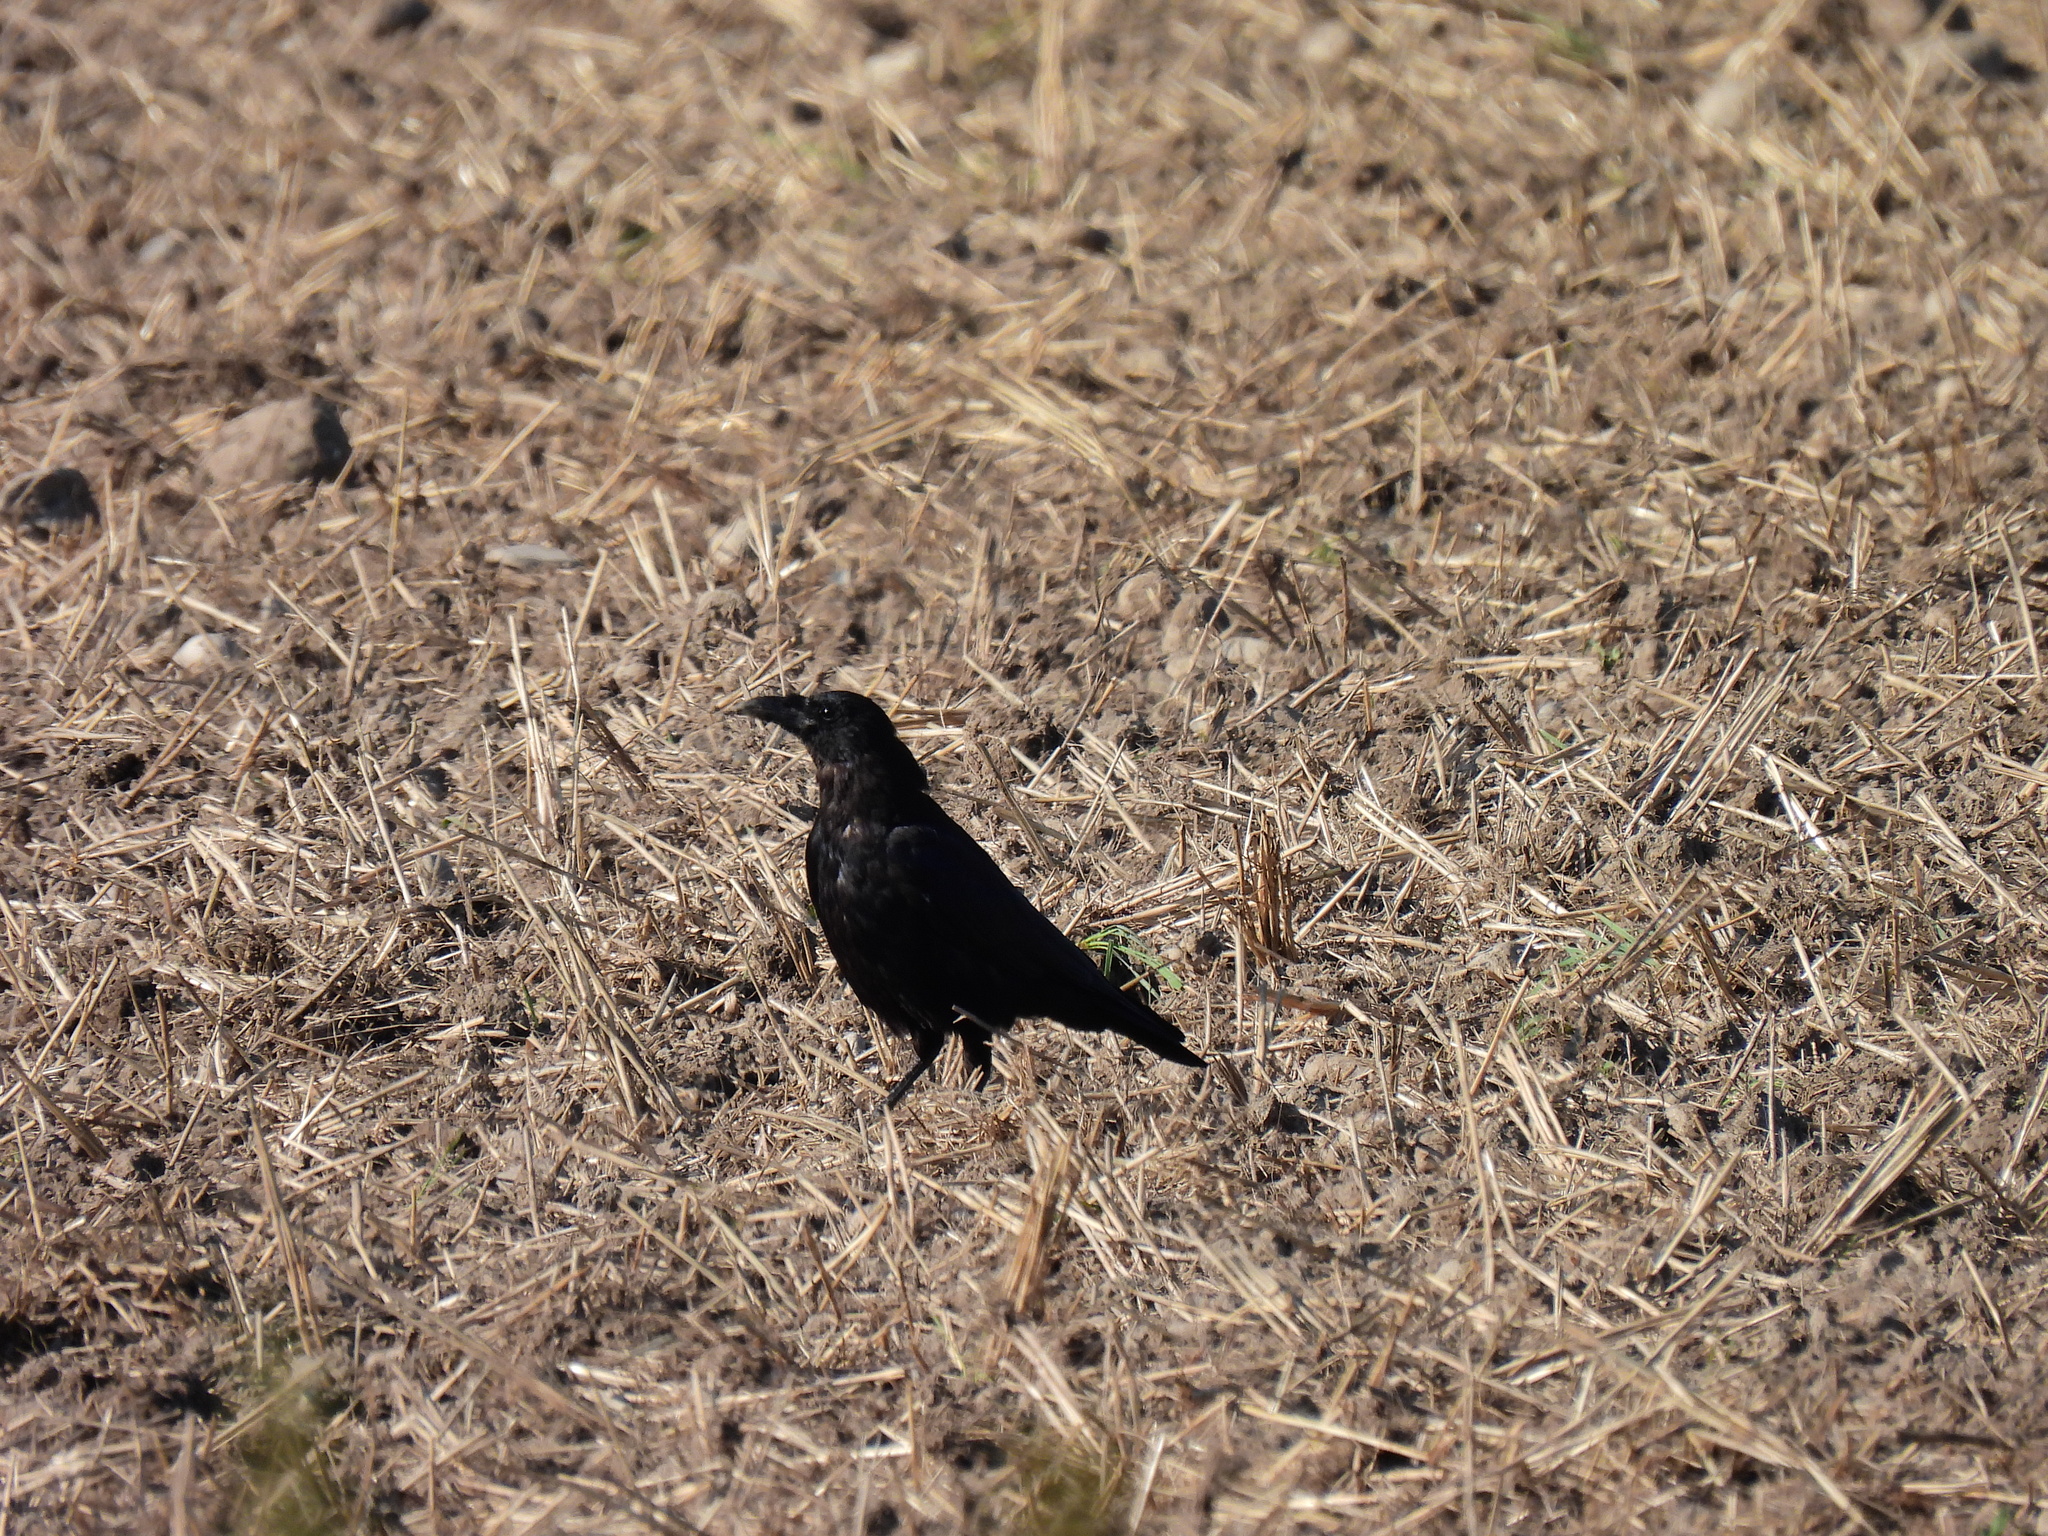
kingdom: Animalia
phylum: Chordata
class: Aves
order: Passeriformes
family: Corvidae
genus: Corvus
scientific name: Corvus corone
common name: Carrion crow
